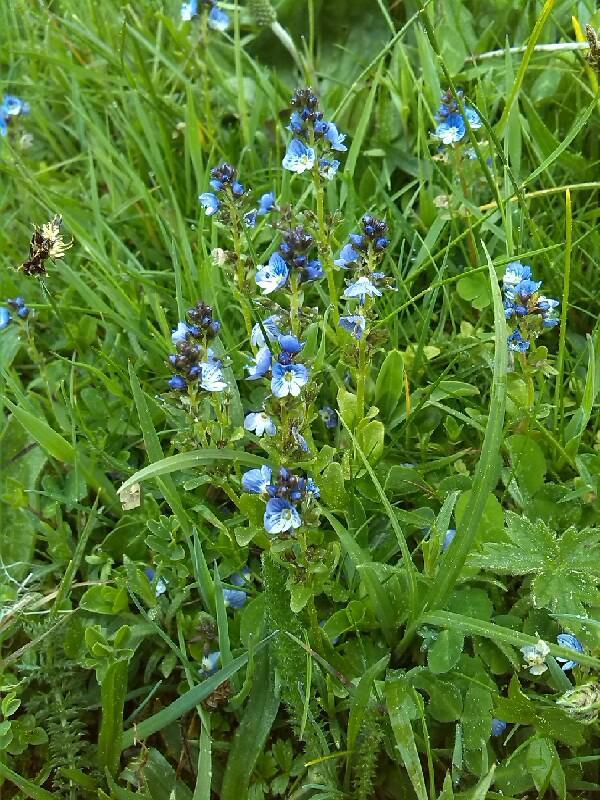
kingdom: Plantae
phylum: Tracheophyta
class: Magnoliopsida
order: Lamiales
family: Plantaginaceae
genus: Veronica
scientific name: Veronica serpyllifolia
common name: Thyme-leaved speedwell
